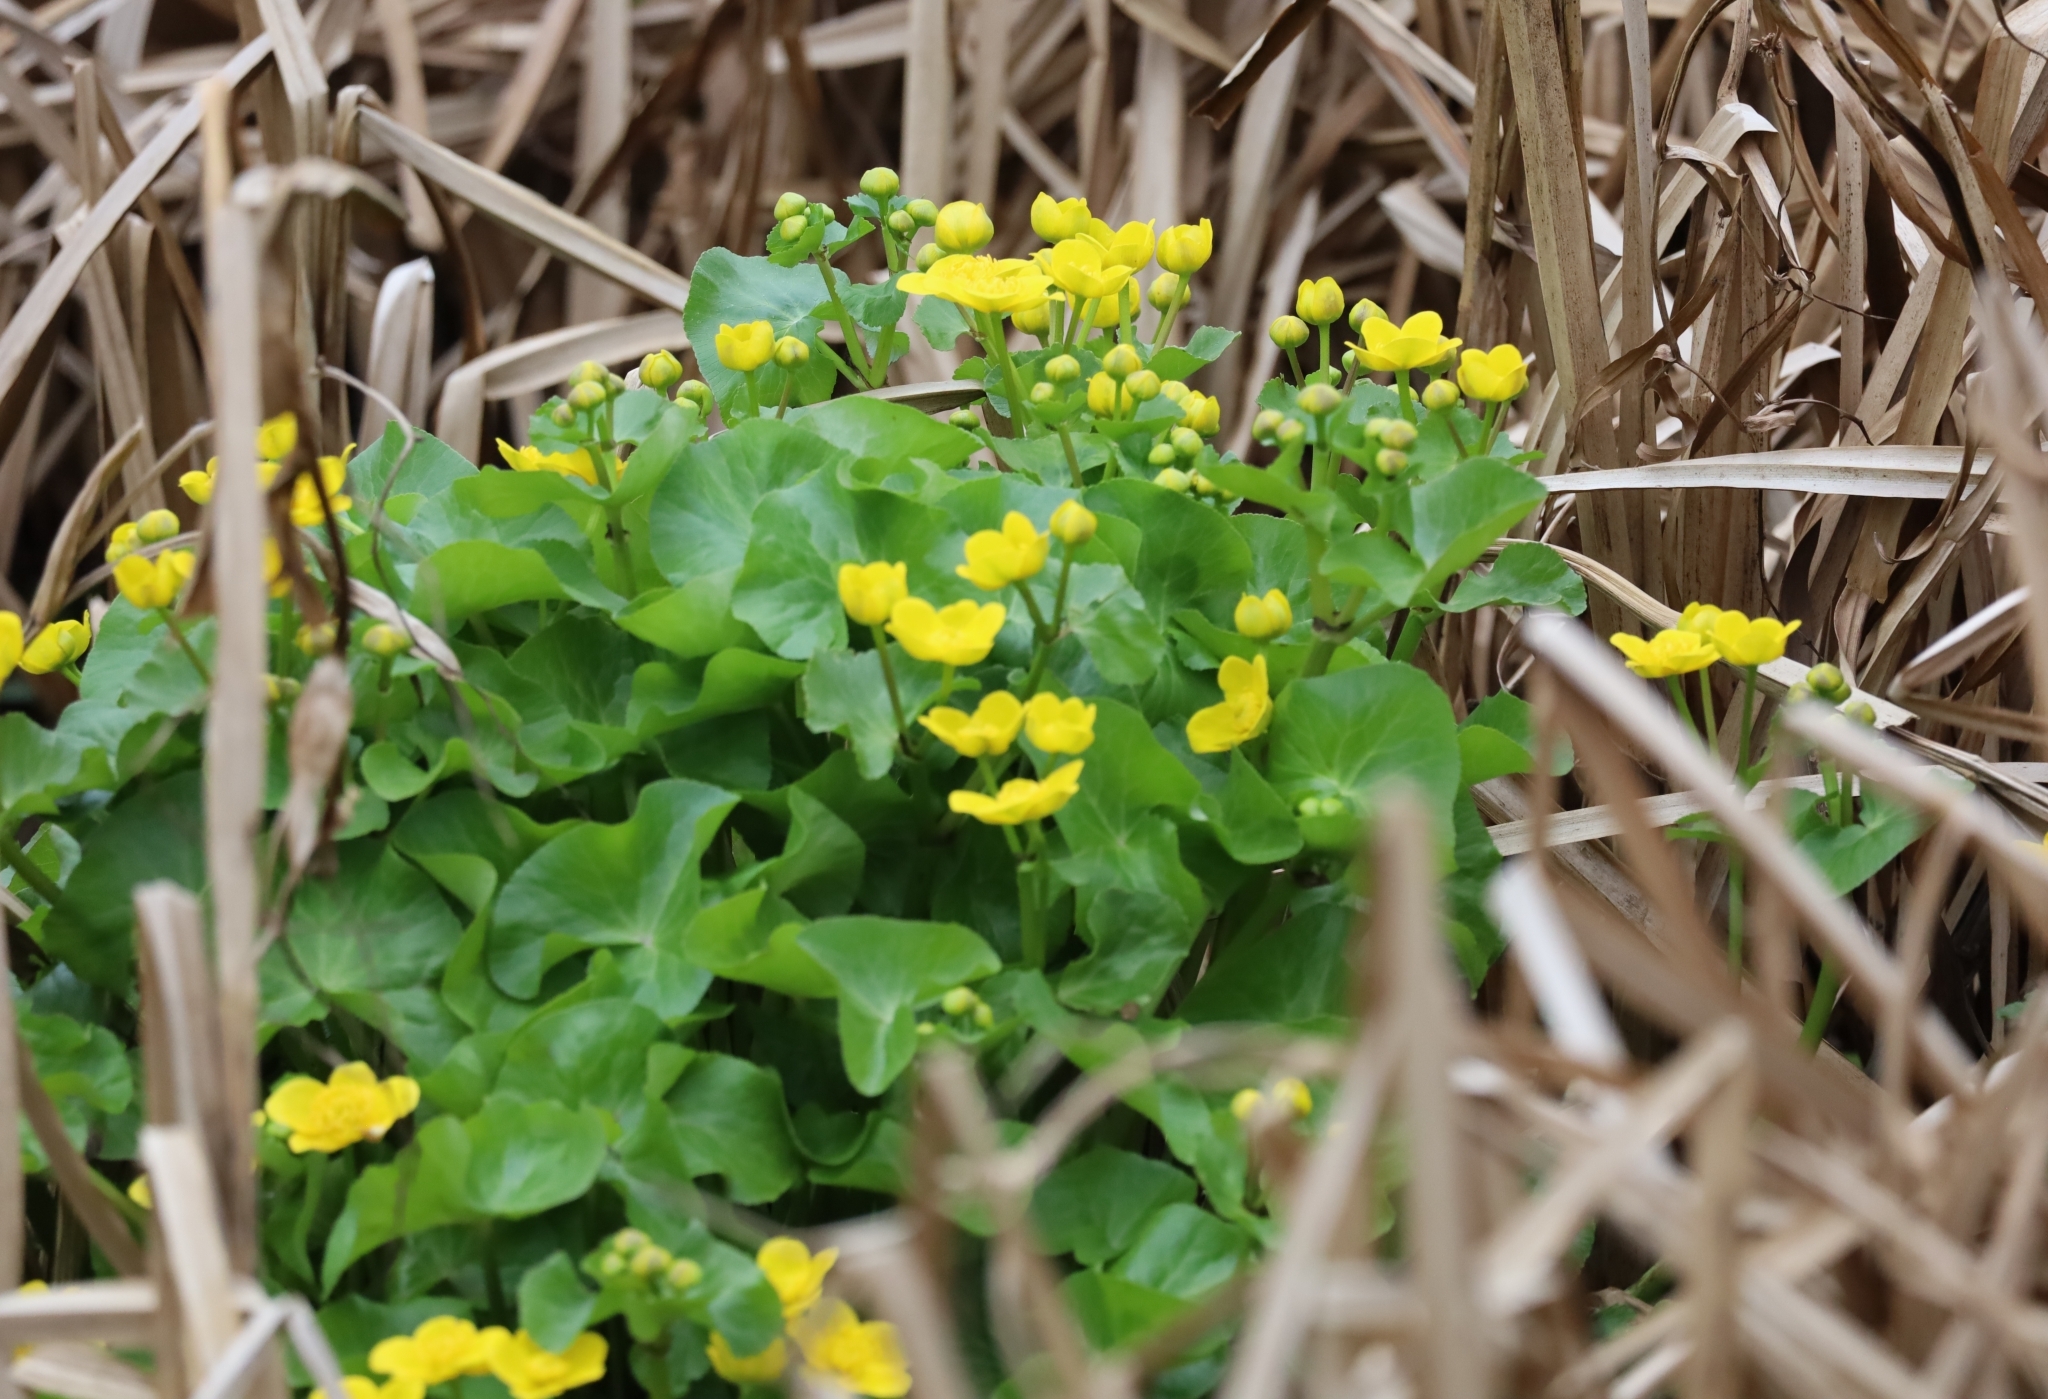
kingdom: Plantae
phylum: Tracheophyta
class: Magnoliopsida
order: Ranunculales
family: Ranunculaceae
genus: Caltha
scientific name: Caltha palustris
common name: Marsh marigold
